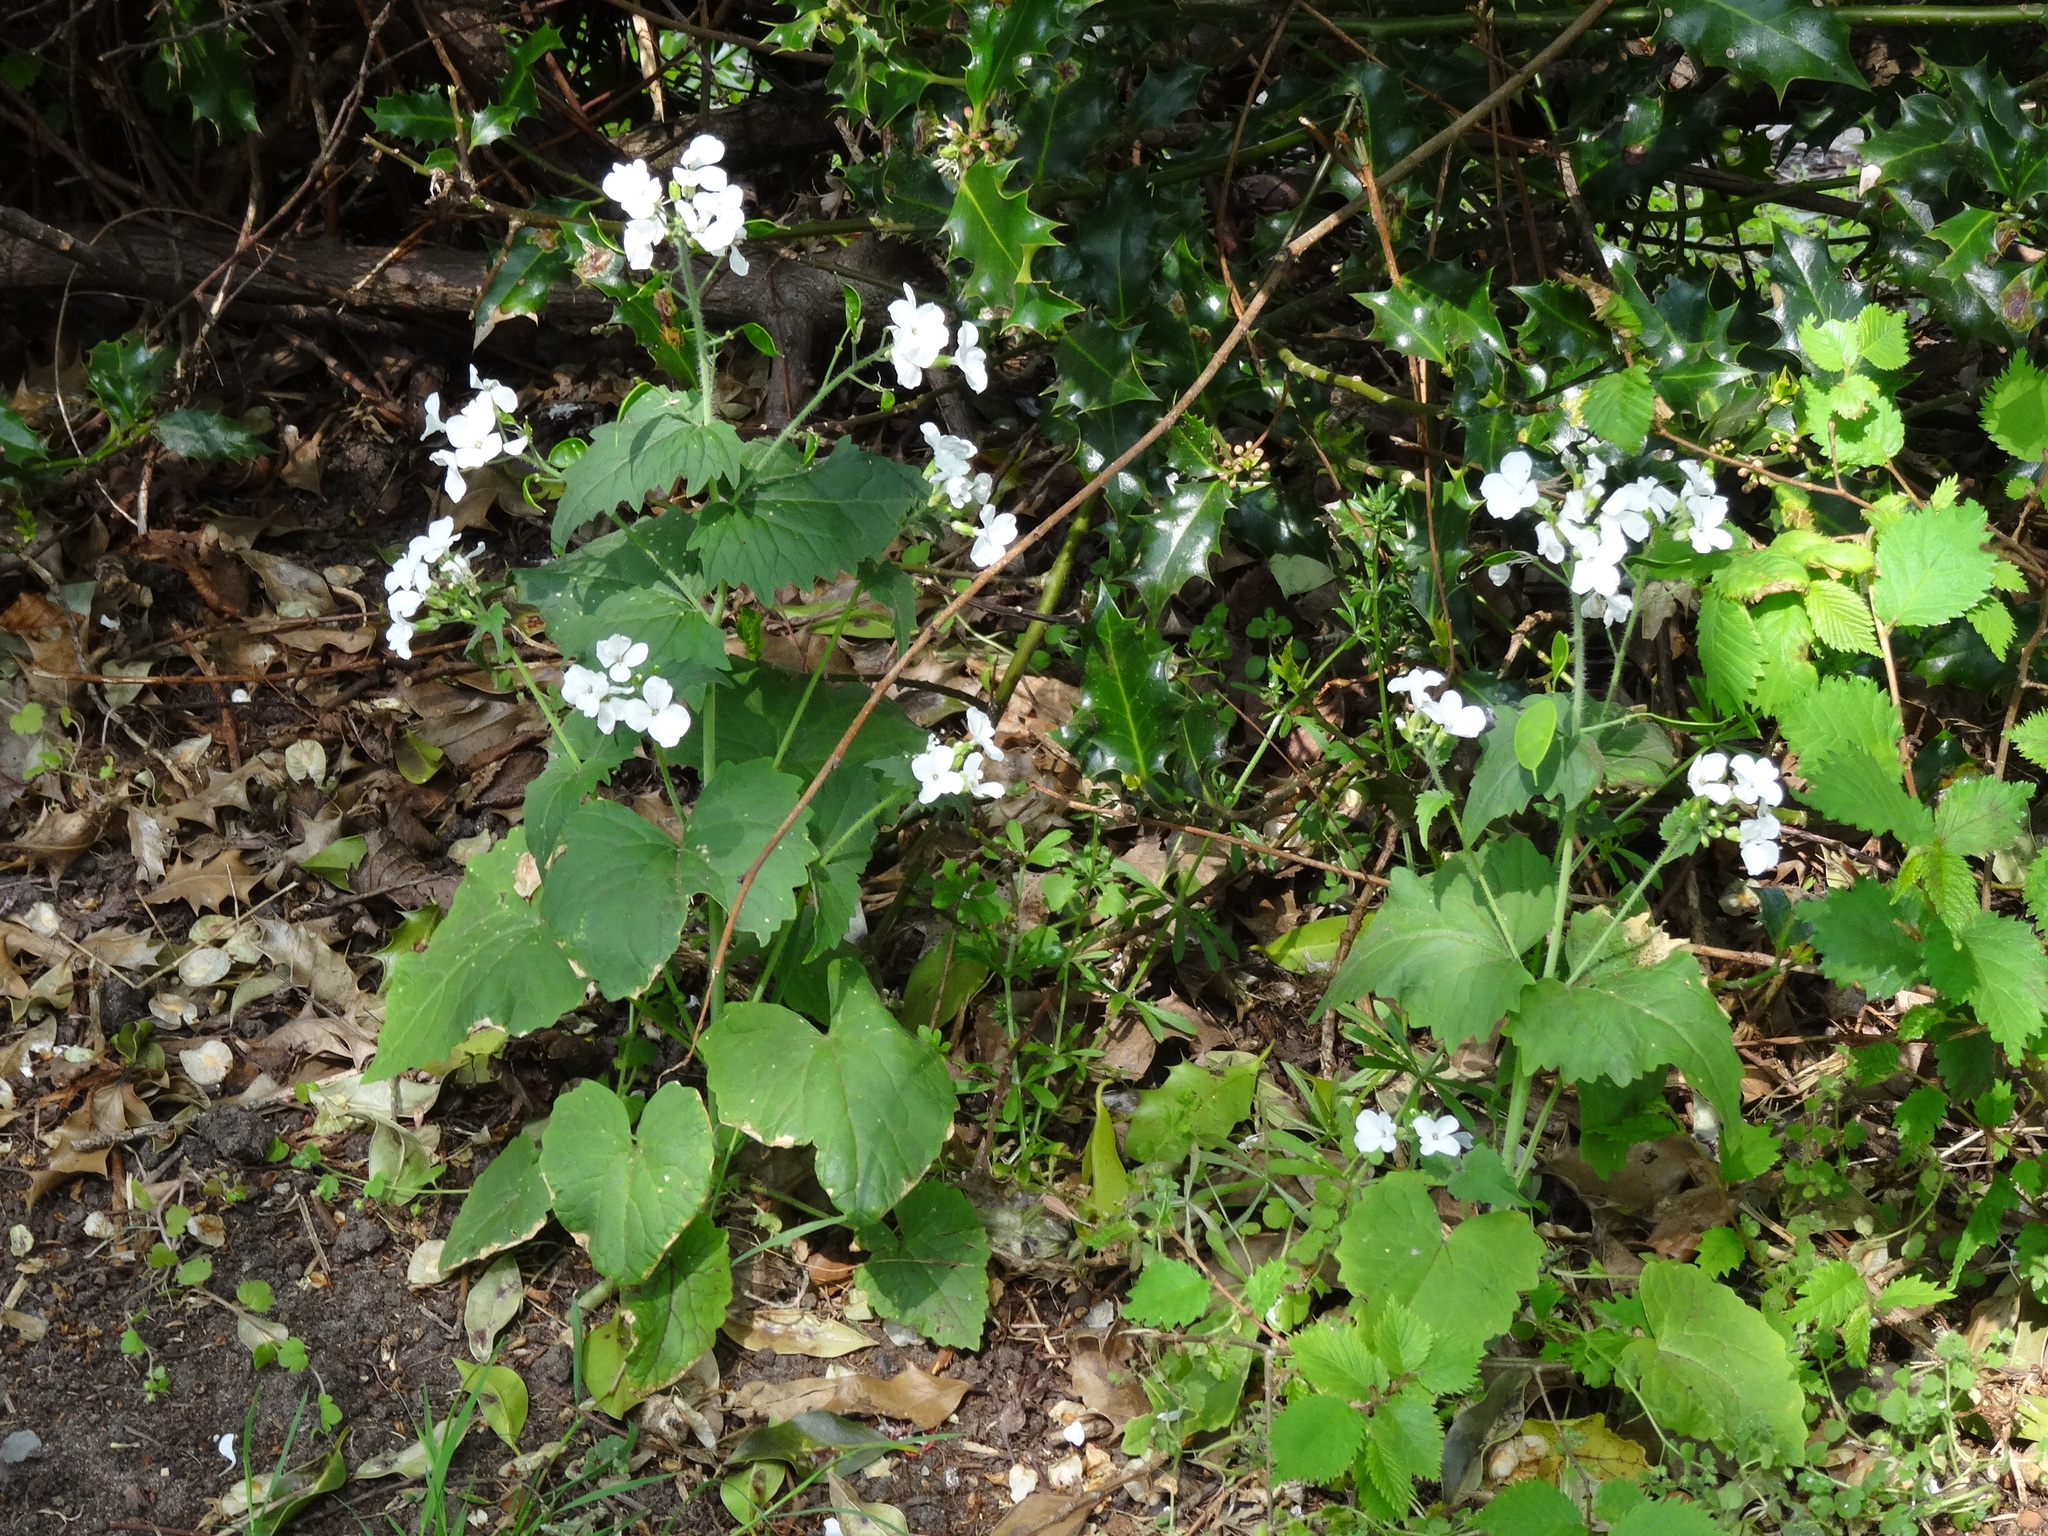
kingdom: Plantae
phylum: Tracheophyta
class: Magnoliopsida
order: Brassicales
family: Brassicaceae
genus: Lunaria
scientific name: Lunaria annua
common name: Honesty
